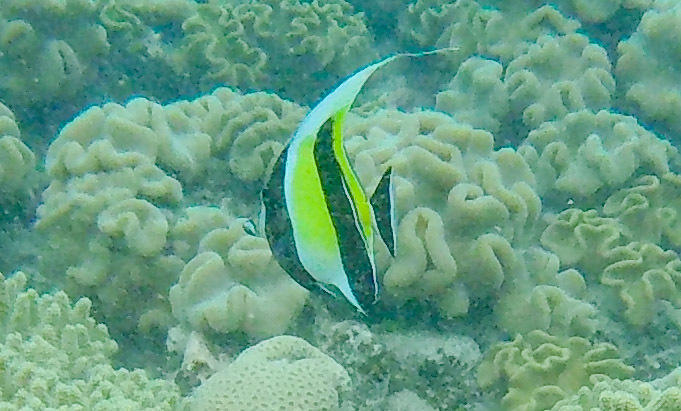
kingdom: Animalia
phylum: Chordata
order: Perciformes
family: Zanclidae
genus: Zanclus
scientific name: Zanclus cornutus
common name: Moorish idol
